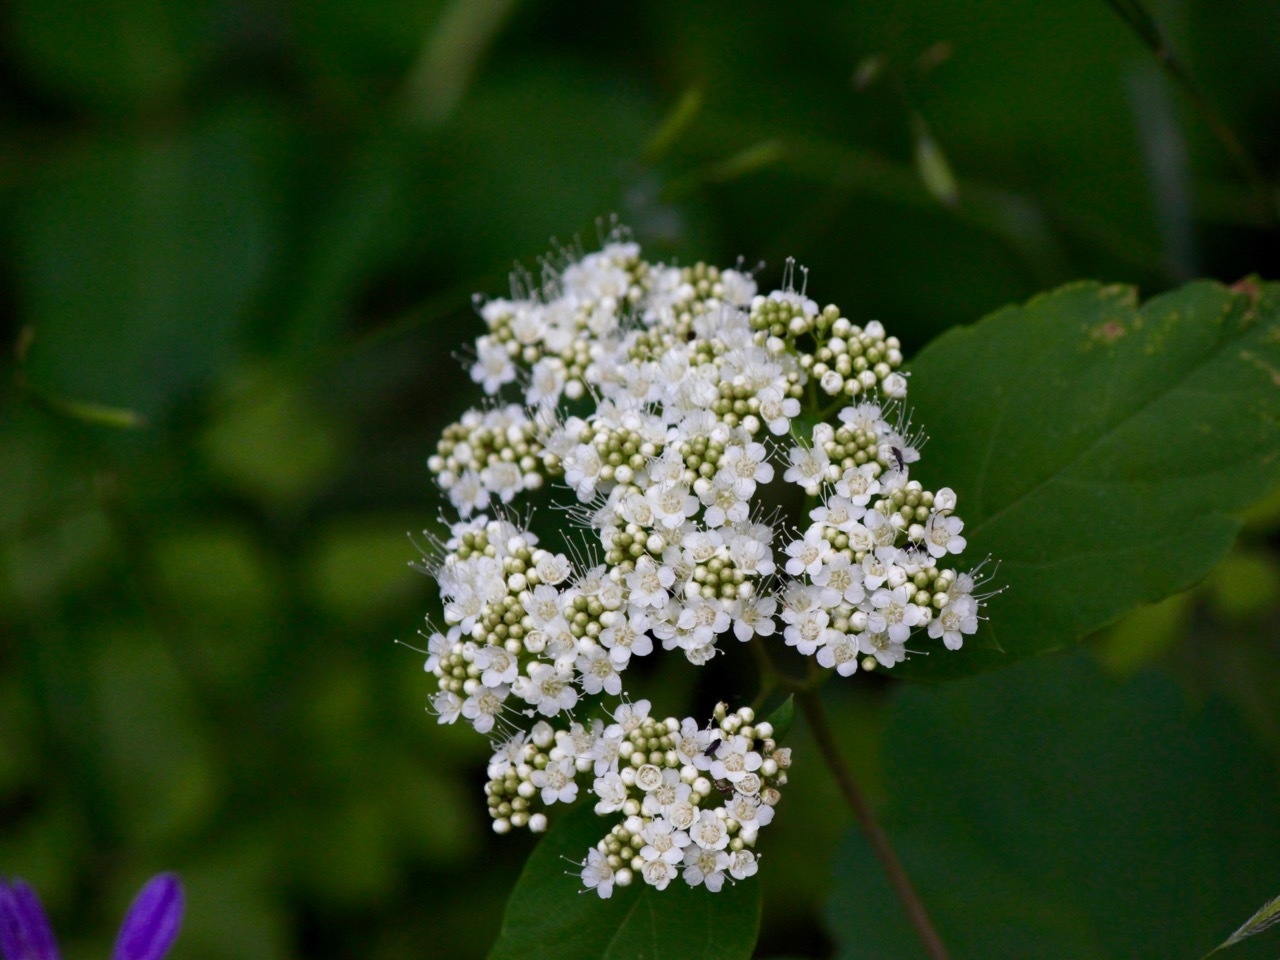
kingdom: Plantae
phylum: Tracheophyta
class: Magnoliopsida
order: Dipsacales
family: Viburnaceae
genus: Viburnum
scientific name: Viburnum ellipticum
